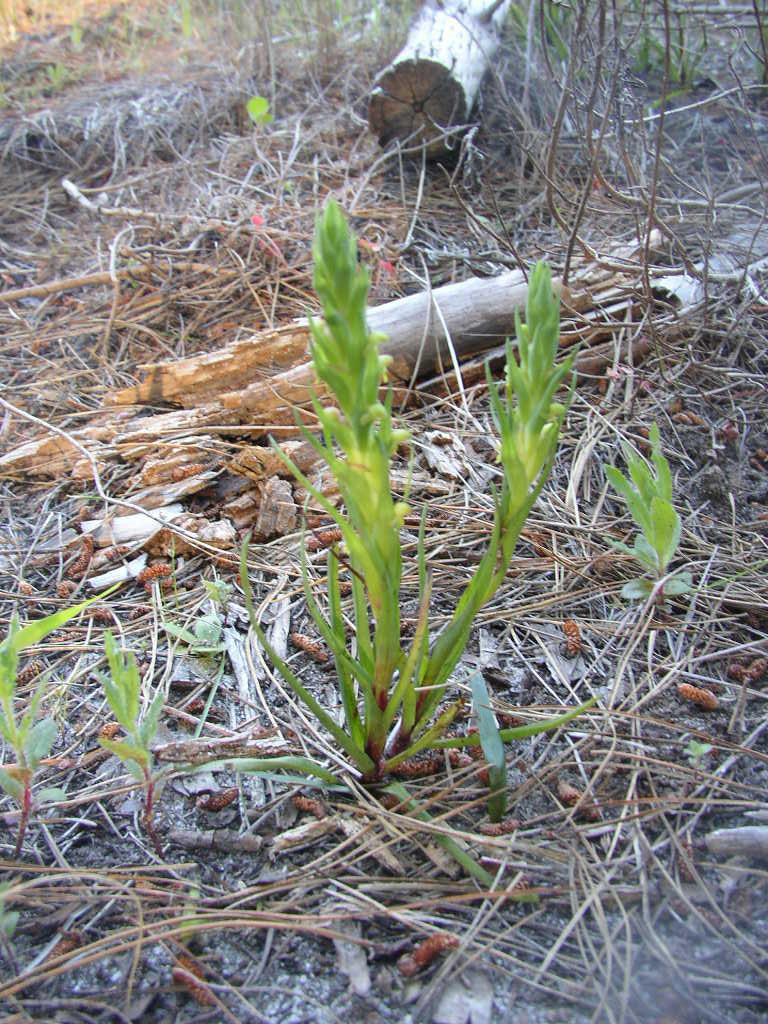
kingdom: Plantae
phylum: Tracheophyta
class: Liliopsida
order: Asparagales
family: Orchidaceae
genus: Disa
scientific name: Disa bracteata
